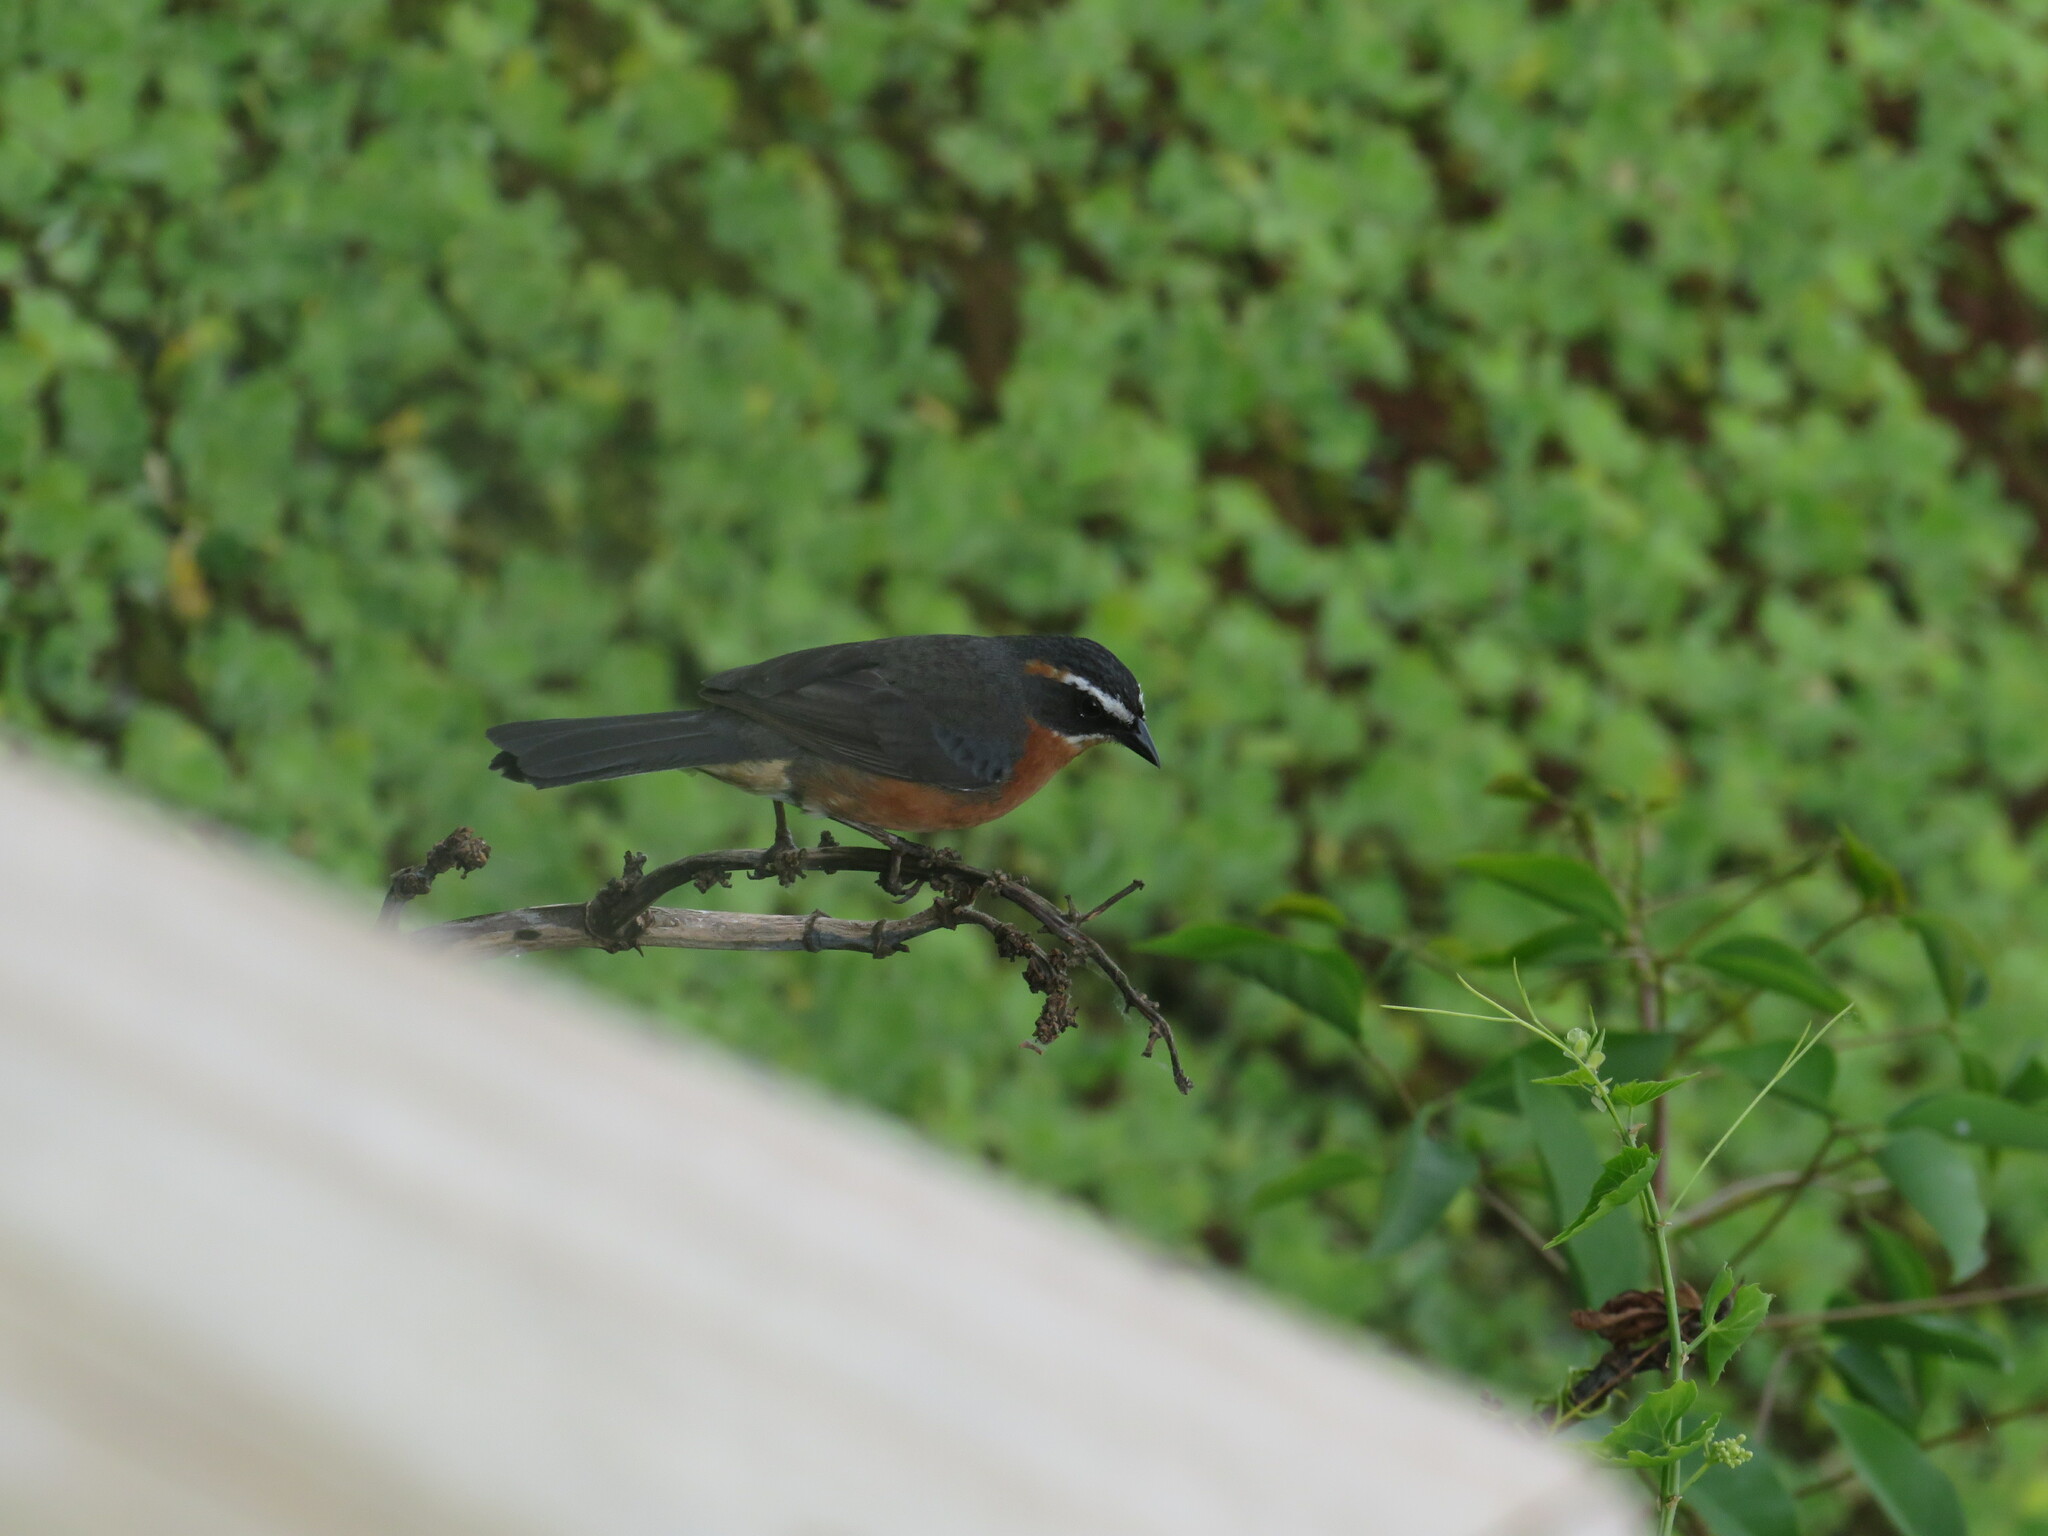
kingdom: Animalia
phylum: Chordata
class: Aves
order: Passeriformes
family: Thraupidae
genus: Poospiza
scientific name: Poospiza nigrorufa
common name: Black-and-rufous warbling finch
